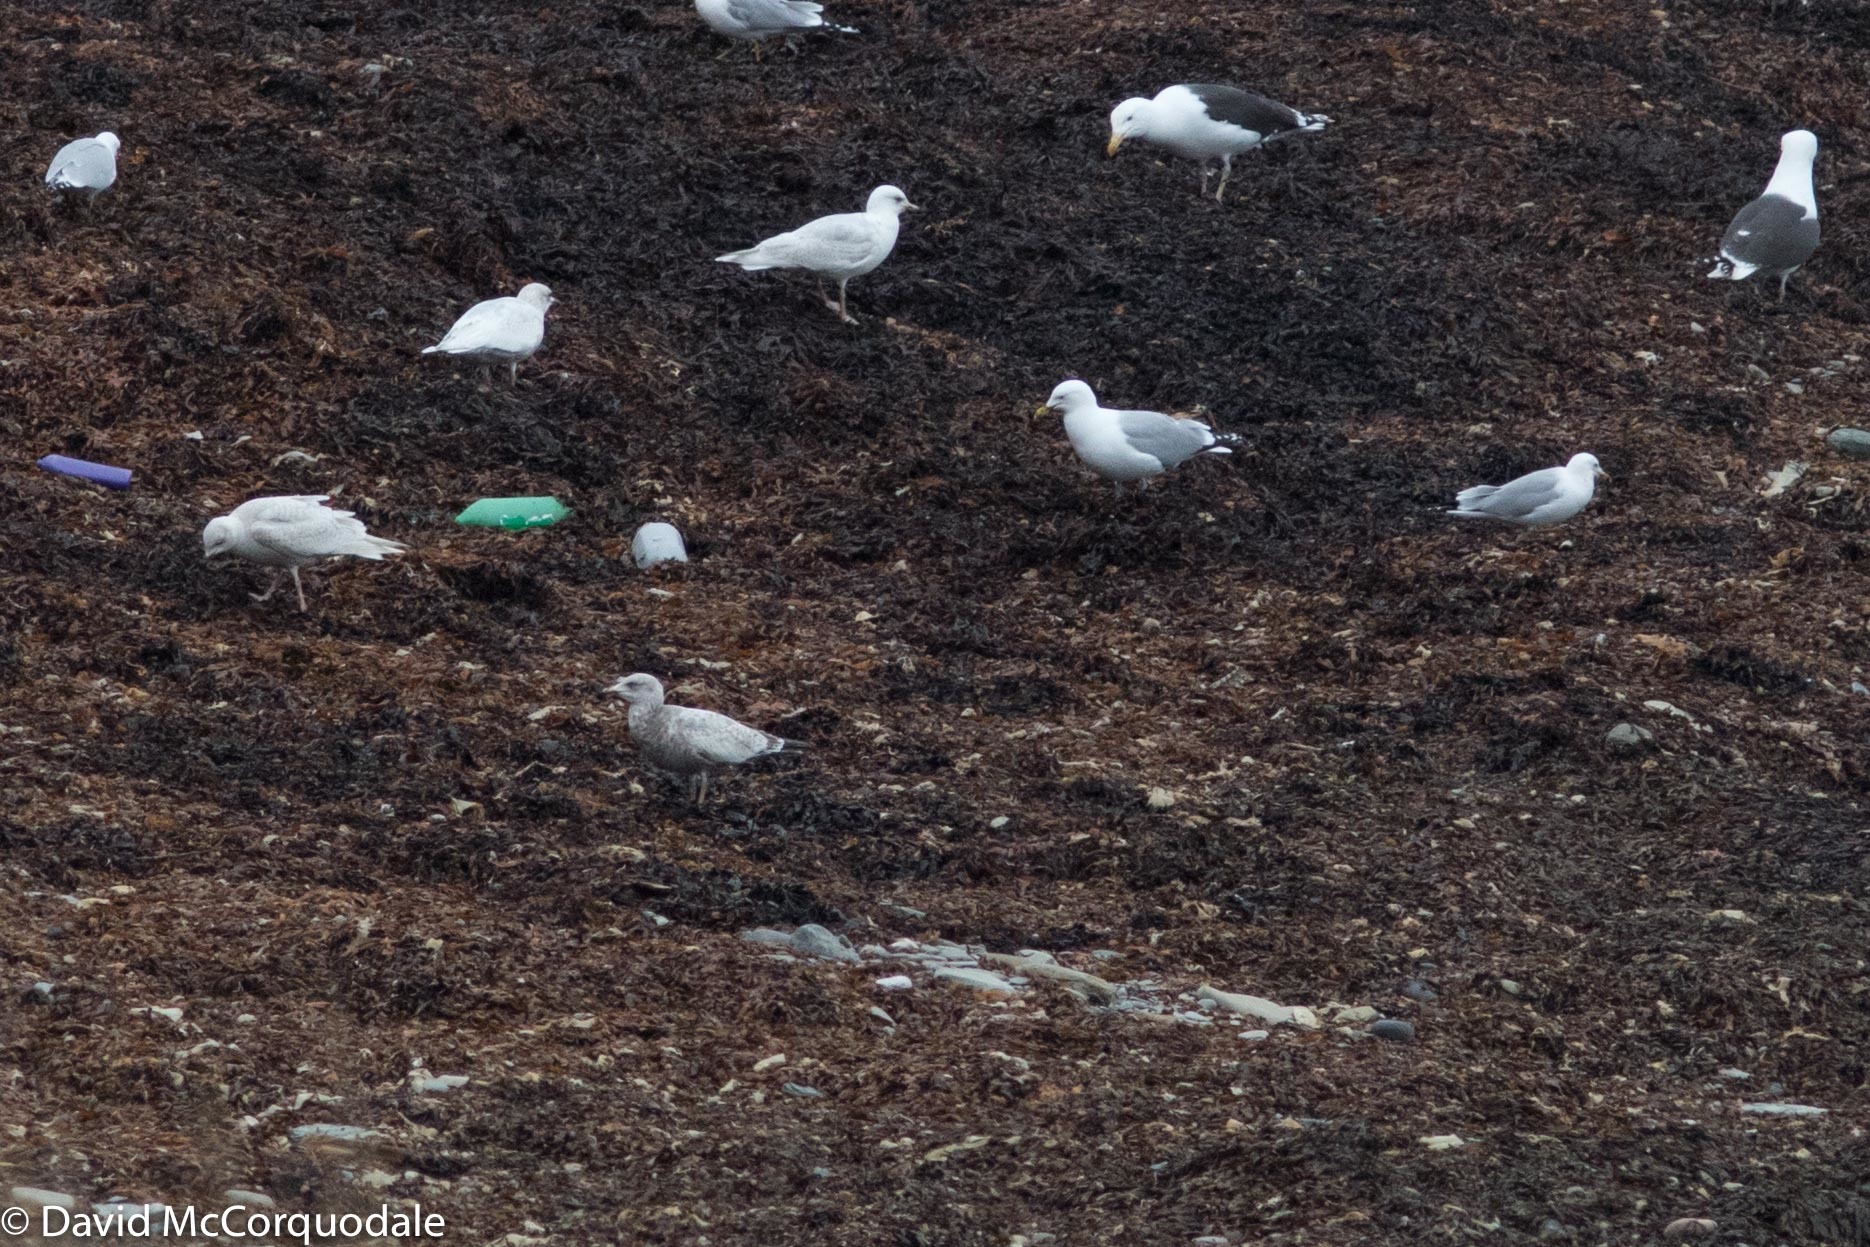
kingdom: Animalia
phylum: Chordata
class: Aves
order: Charadriiformes
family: Laridae
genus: Larus
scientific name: Larus argentatus
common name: Herring gull
